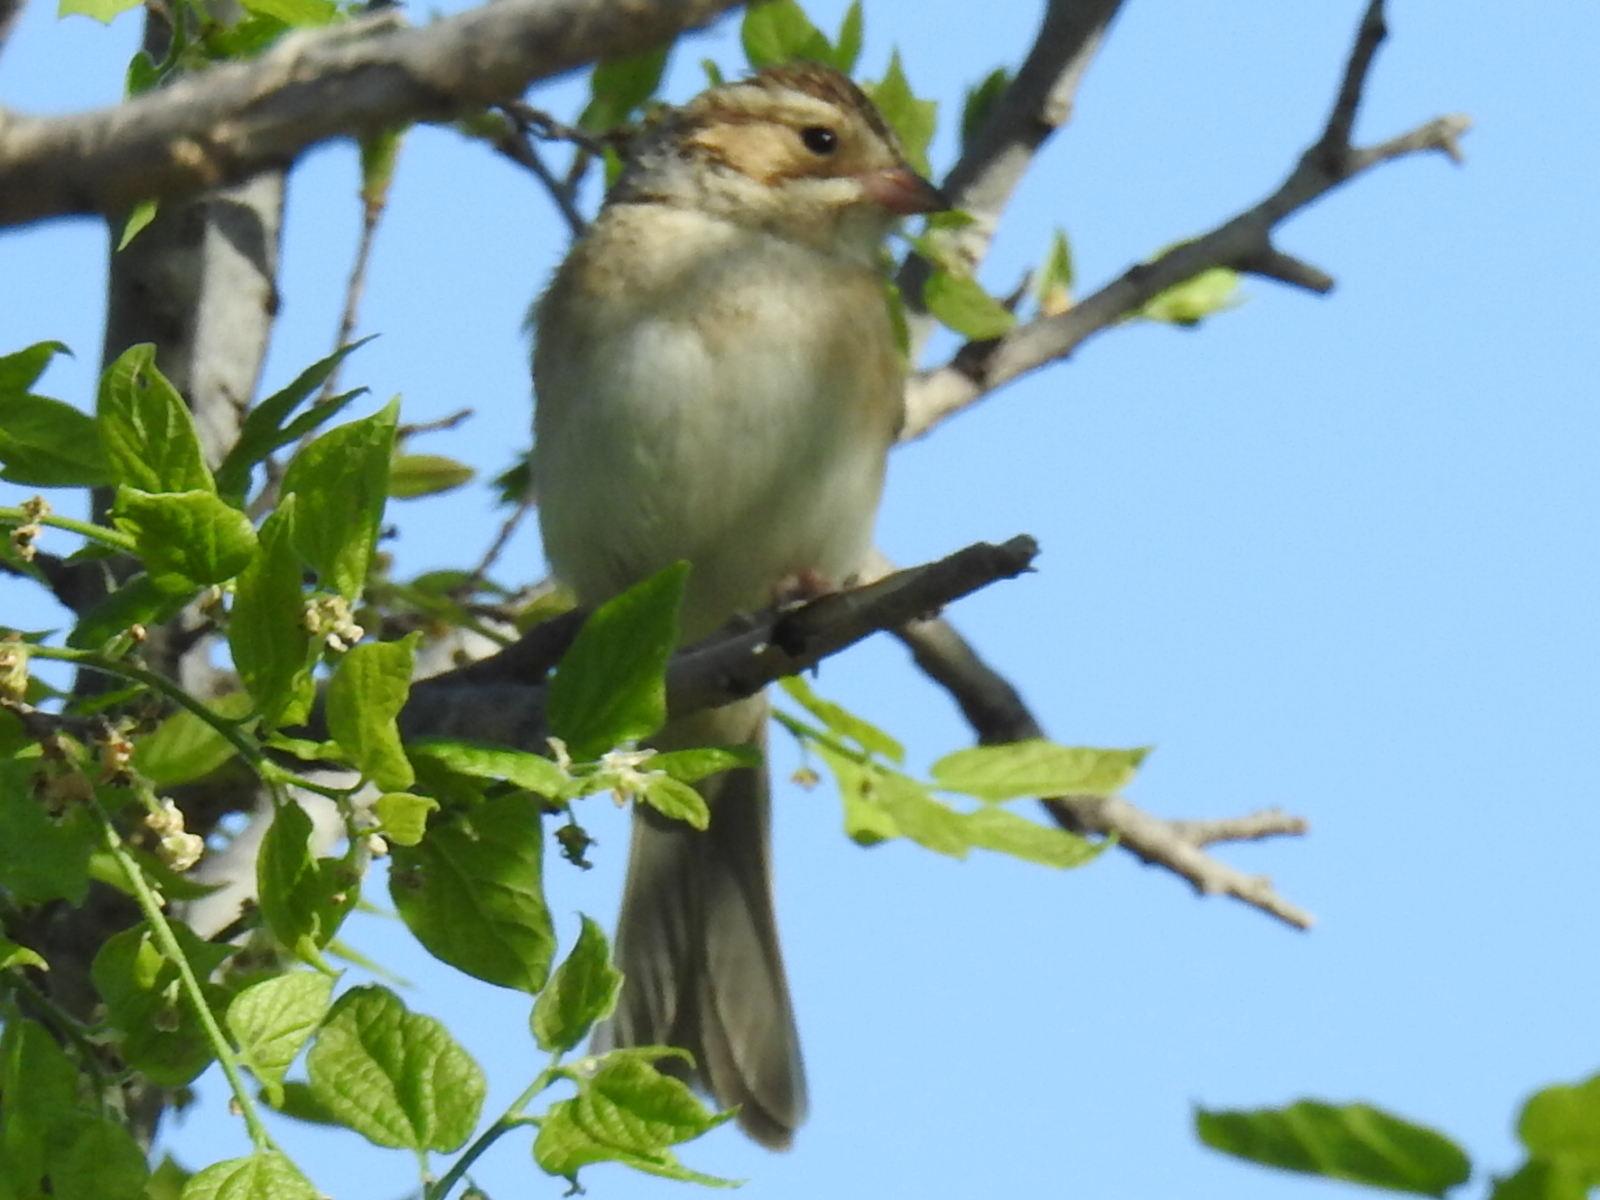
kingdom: Animalia
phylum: Chordata
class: Aves
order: Passeriformes
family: Passerellidae
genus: Spizella
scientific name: Spizella pallida
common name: Clay-colored sparrow
